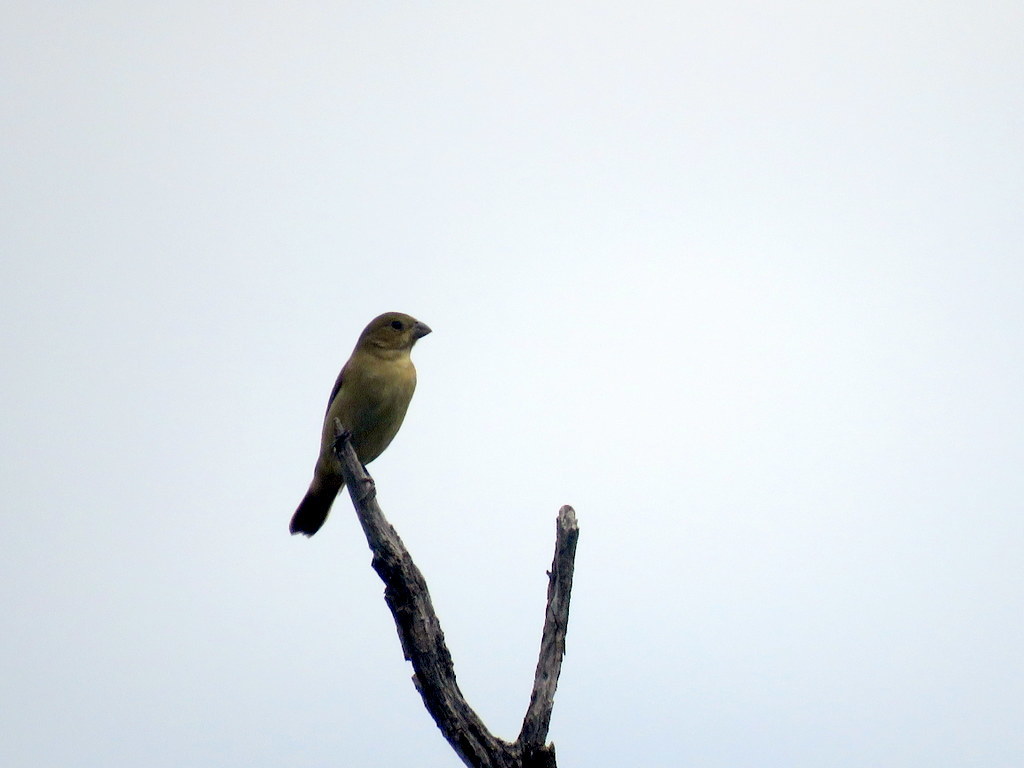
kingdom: Animalia
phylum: Chordata
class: Aves
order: Passeriformes
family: Thraupidae
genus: Sporophila
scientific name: Sporophila caerulescens
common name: Double-collared seedeater
